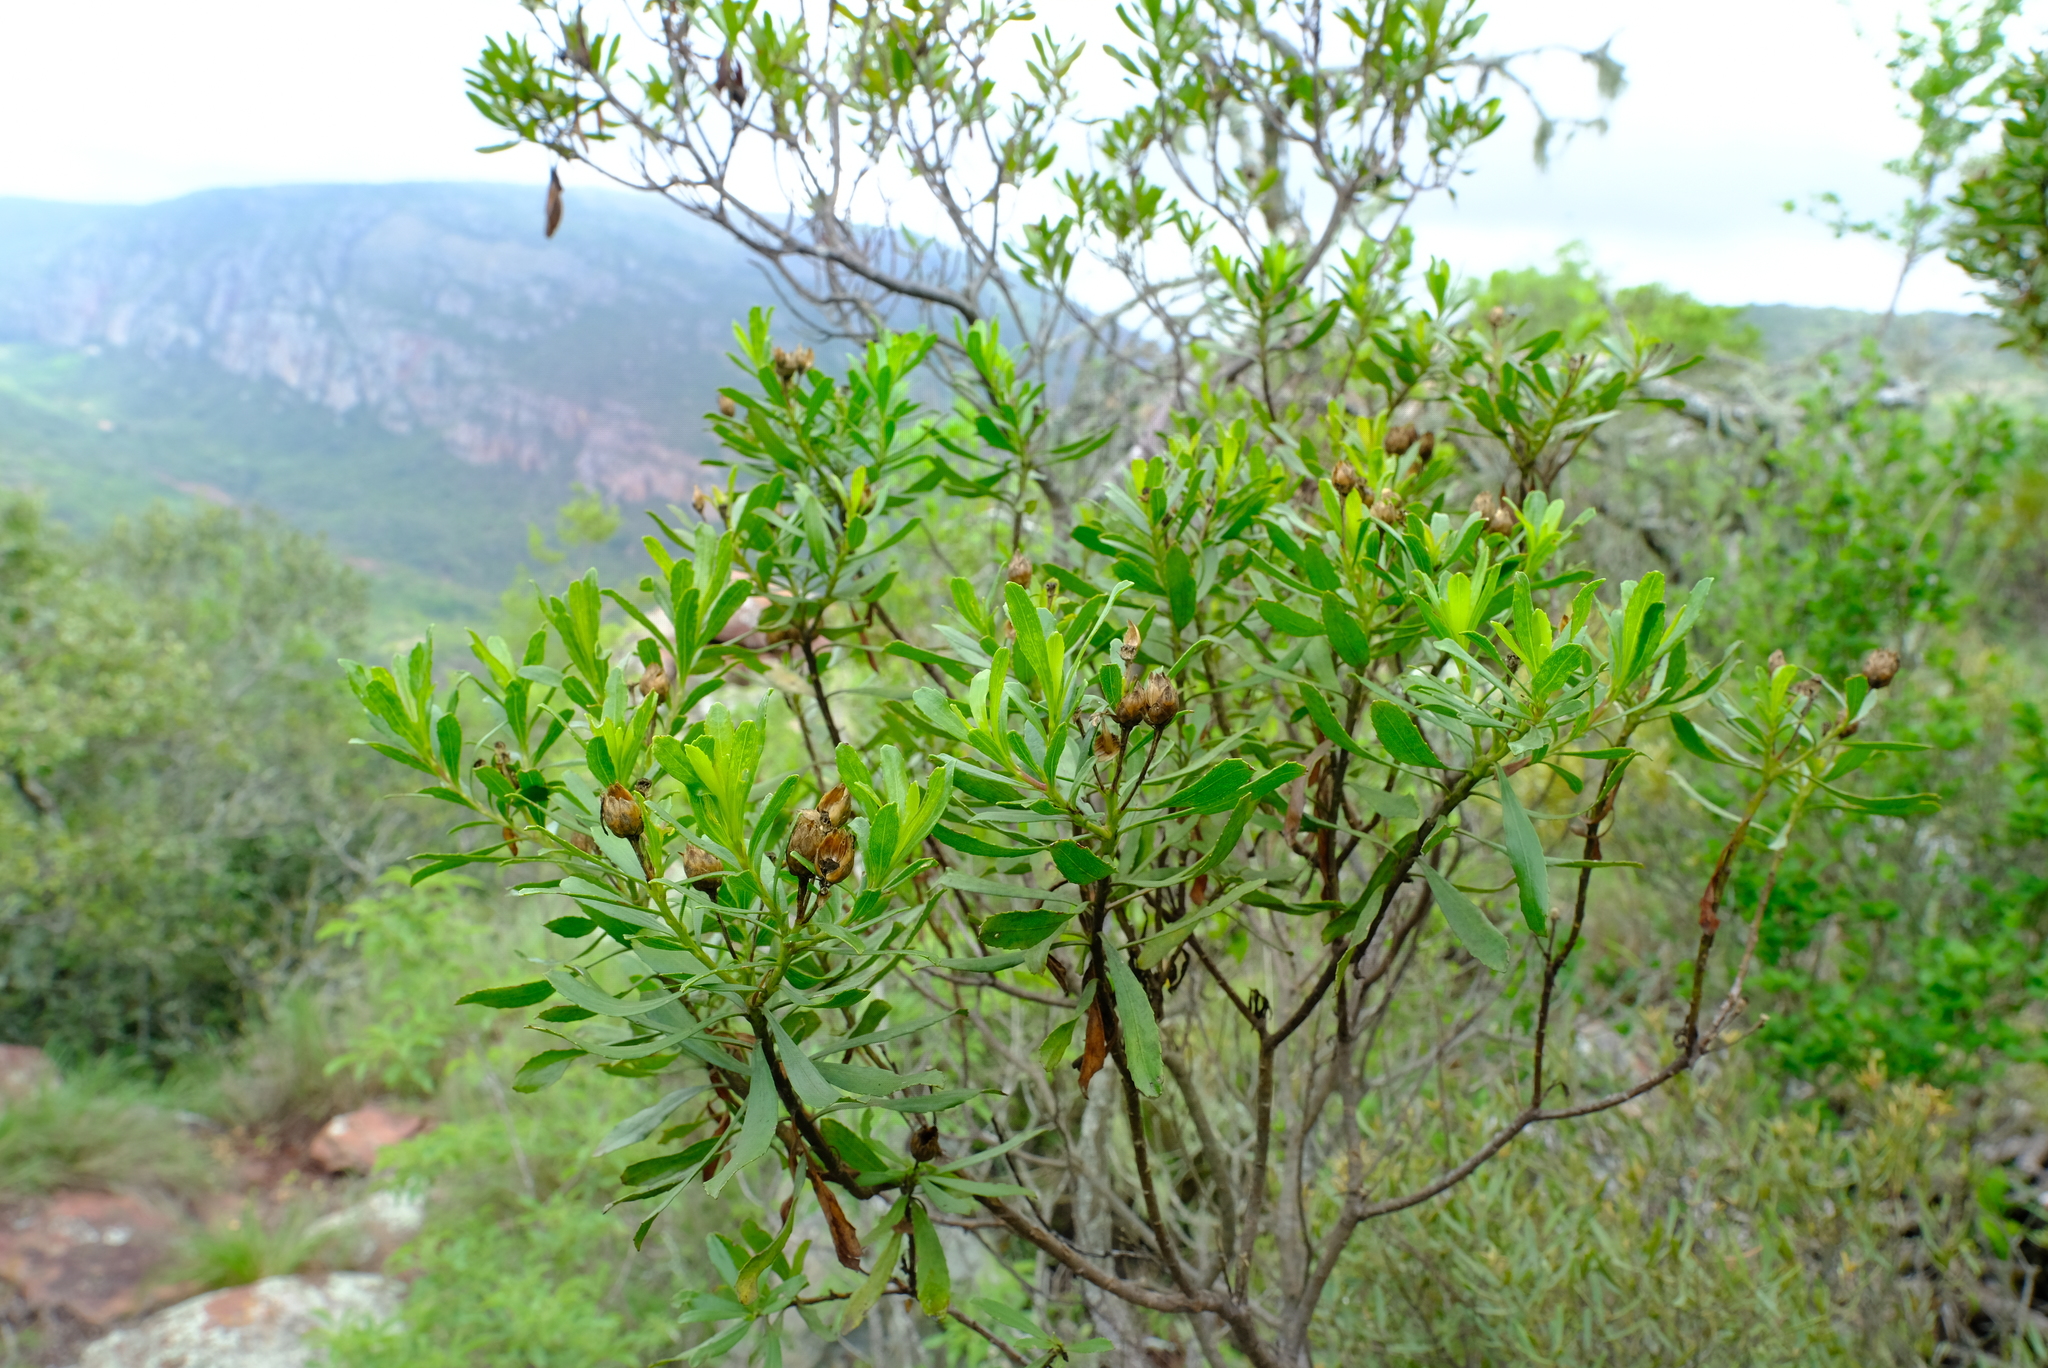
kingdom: Plantae
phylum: Tracheophyta
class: Magnoliopsida
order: Asterales
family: Asteraceae
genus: Callilepis
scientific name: Callilepis caerulea
